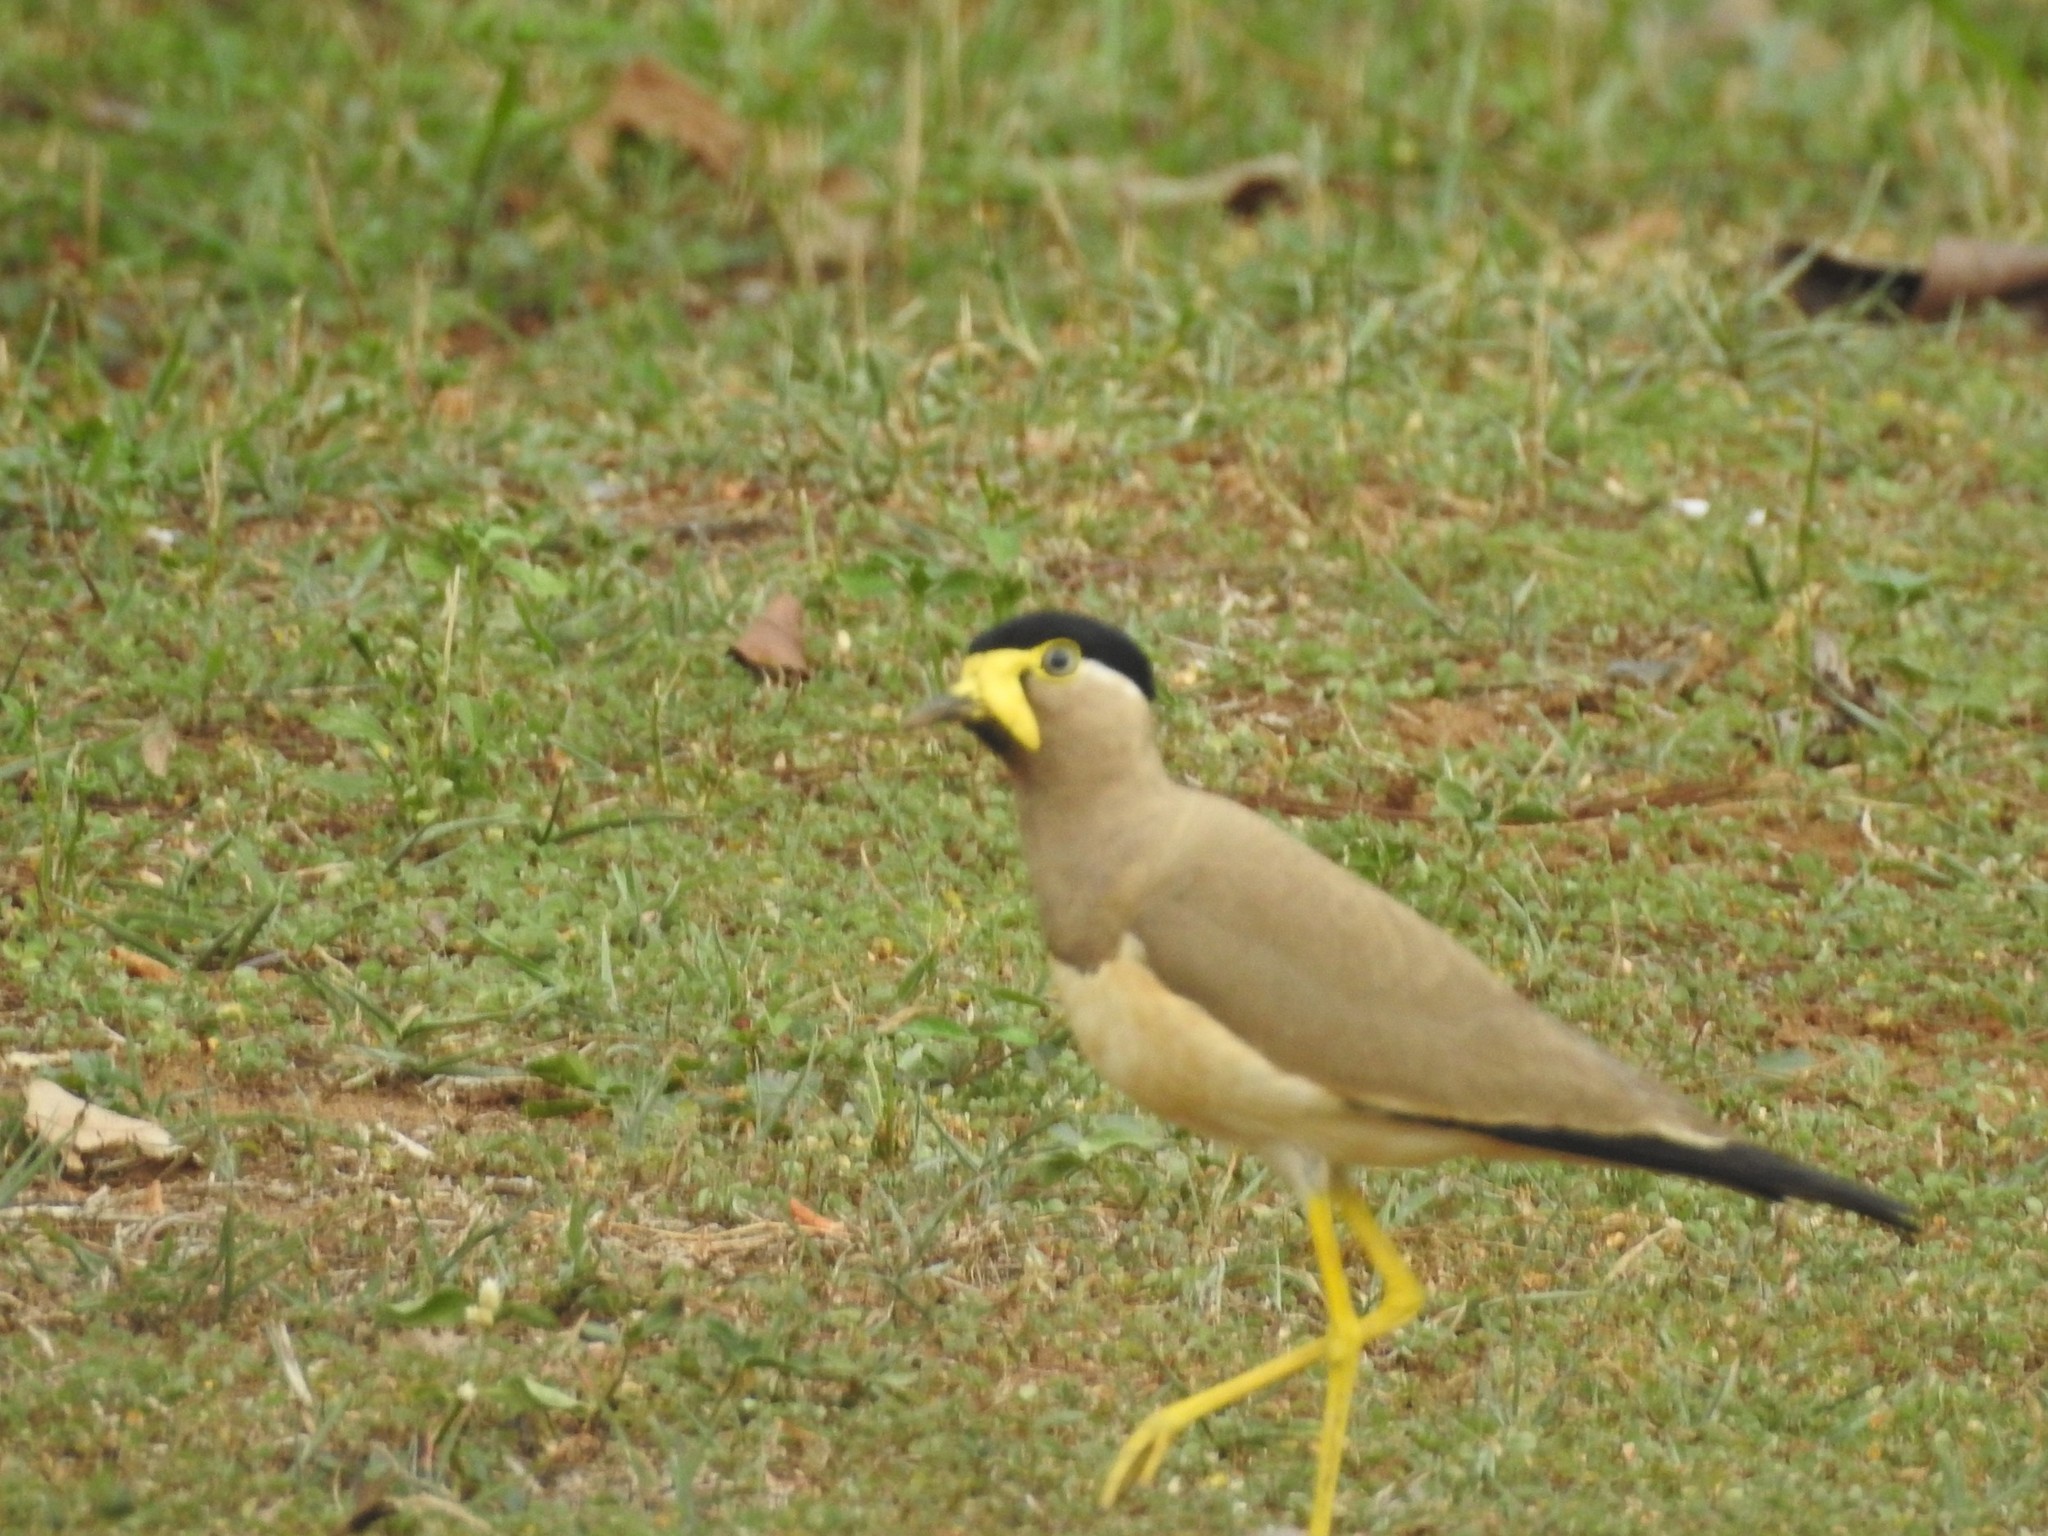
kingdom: Animalia
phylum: Chordata
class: Aves
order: Charadriiformes
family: Charadriidae
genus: Vanellus
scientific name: Vanellus malabaricus
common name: Yellow-wattled lapwing
